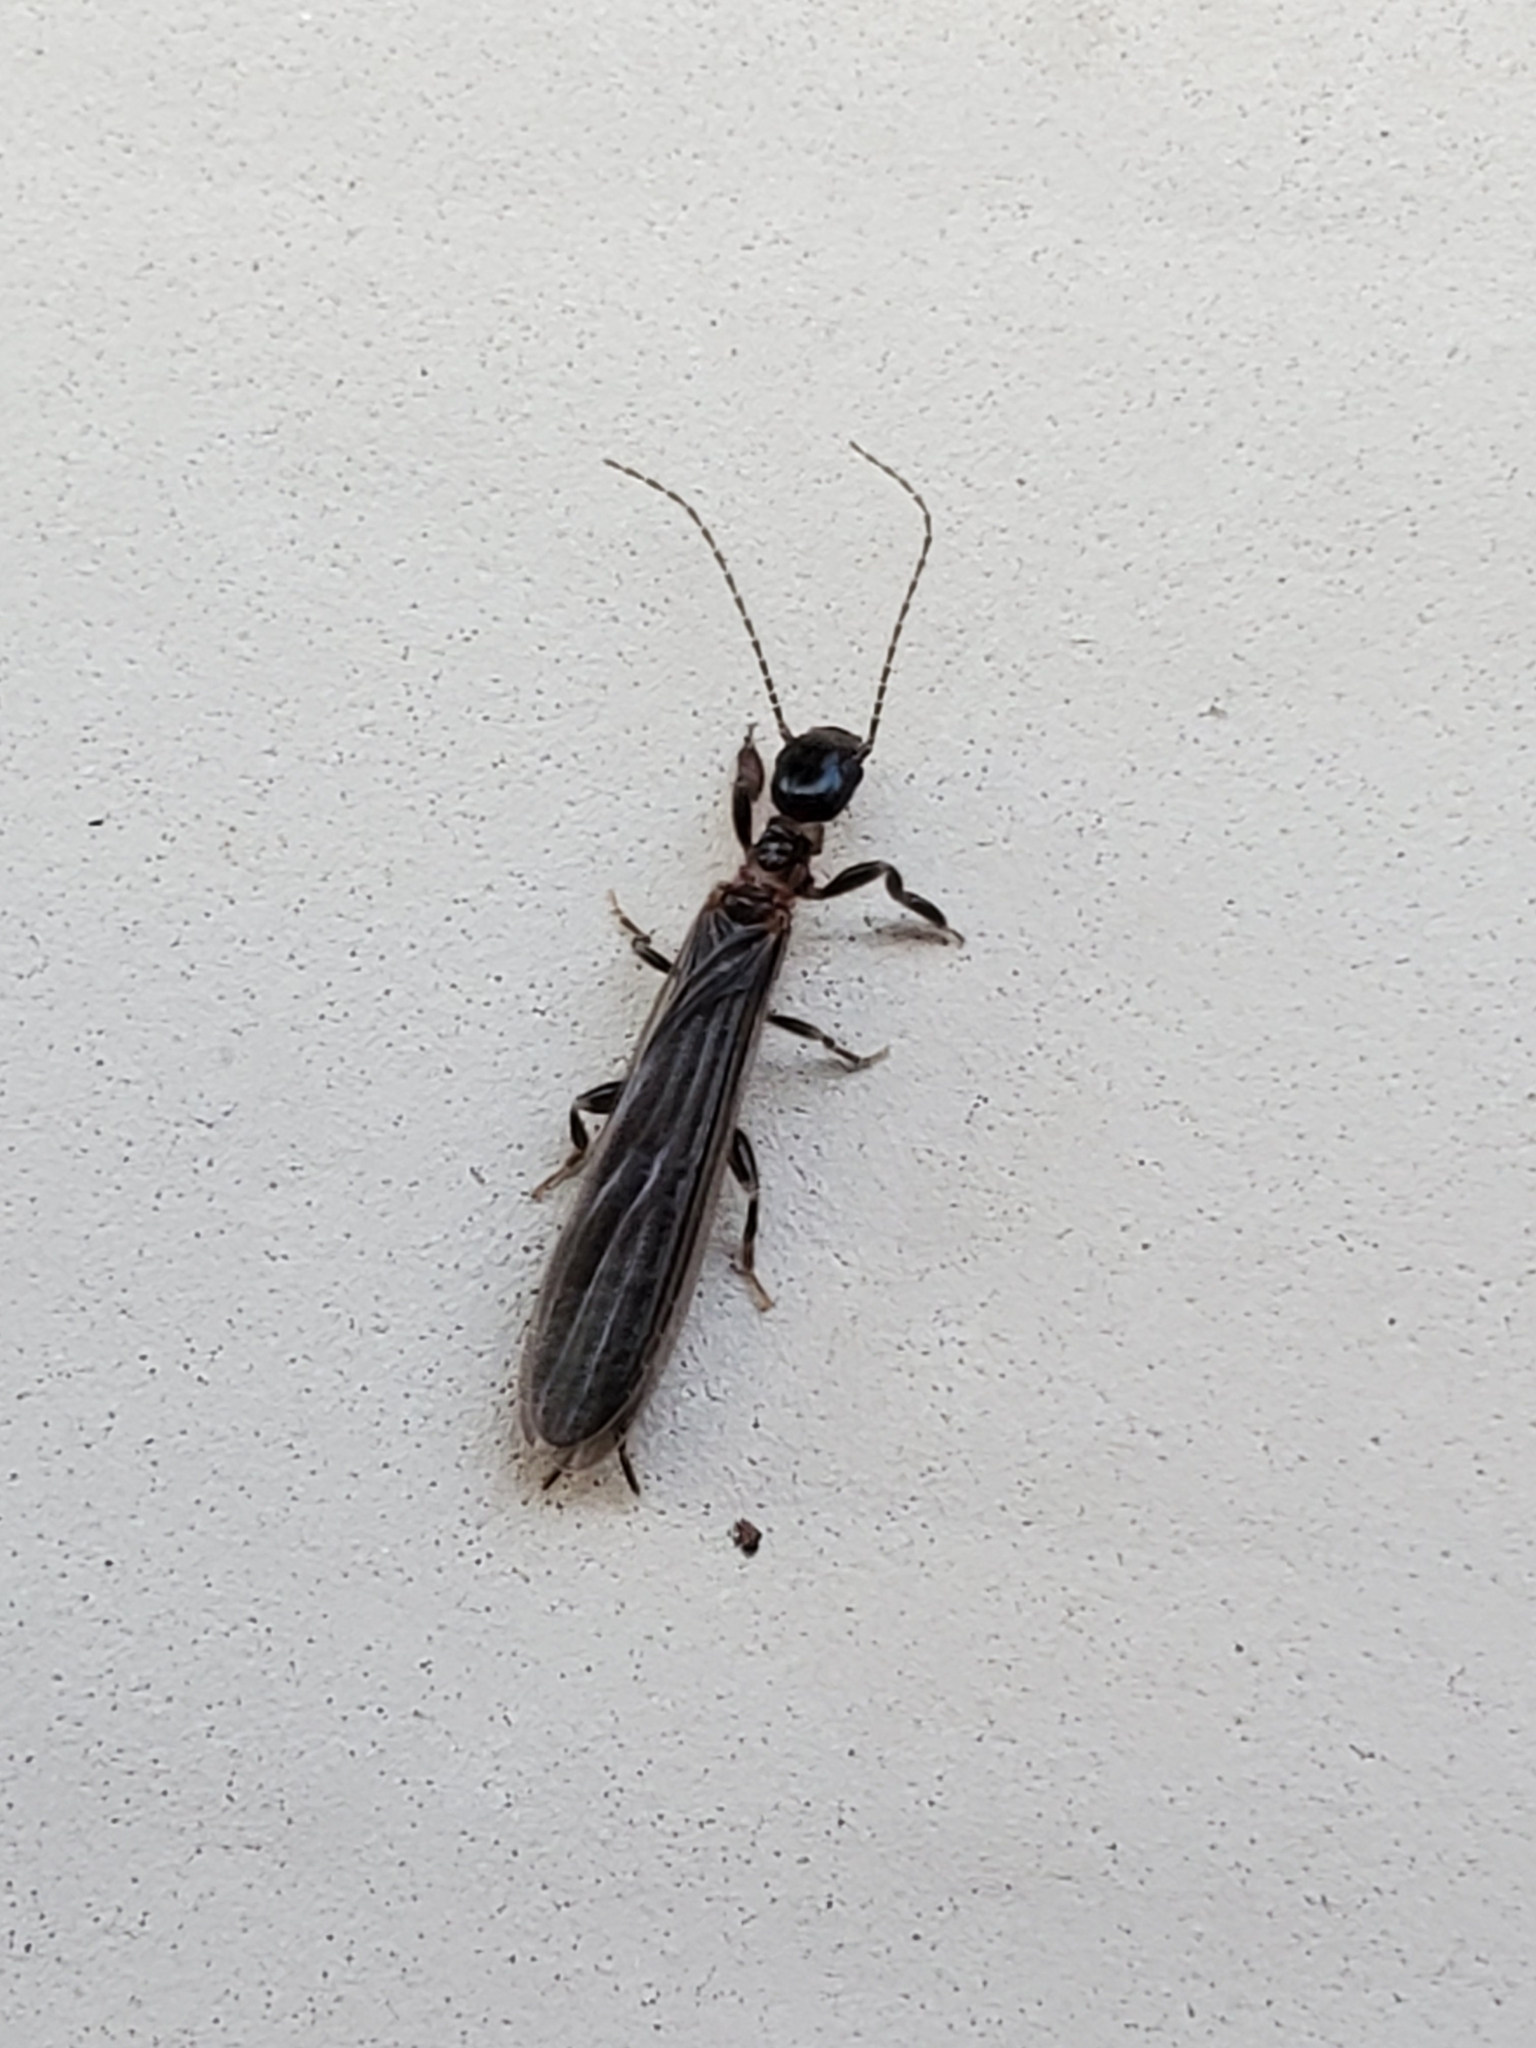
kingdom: Animalia
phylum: Arthropoda
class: Insecta
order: Embioptera
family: Oligotomidae
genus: Oligotoma
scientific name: Oligotoma nigra
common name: Black webspinner
